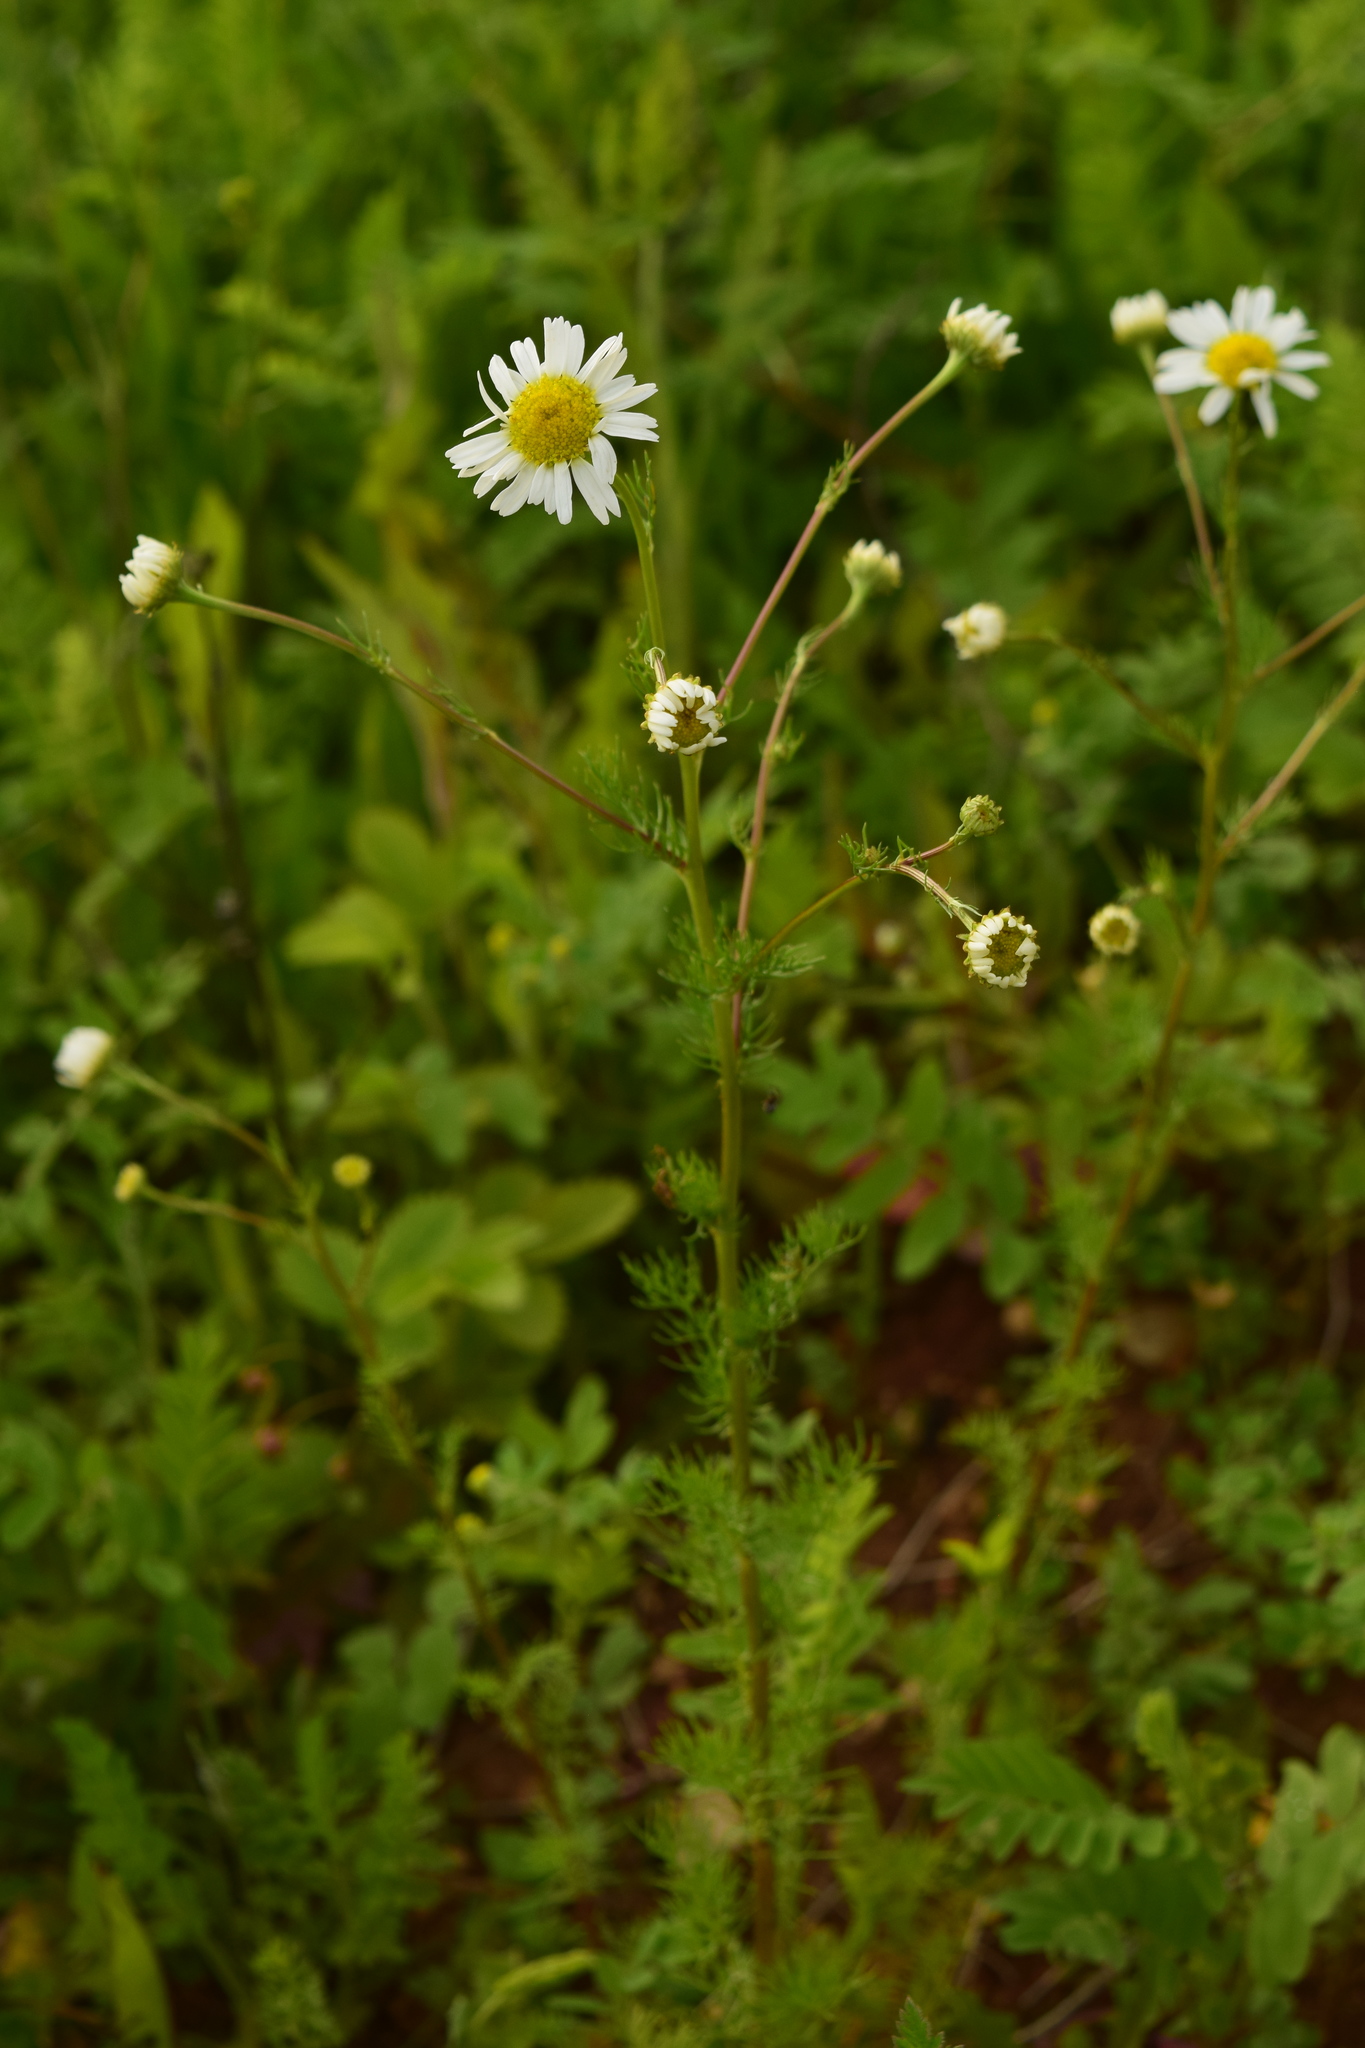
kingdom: Plantae
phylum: Tracheophyta
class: Magnoliopsida
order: Asterales
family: Asteraceae
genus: Tripleurospermum
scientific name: Tripleurospermum inodorum
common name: Scentless mayweed
